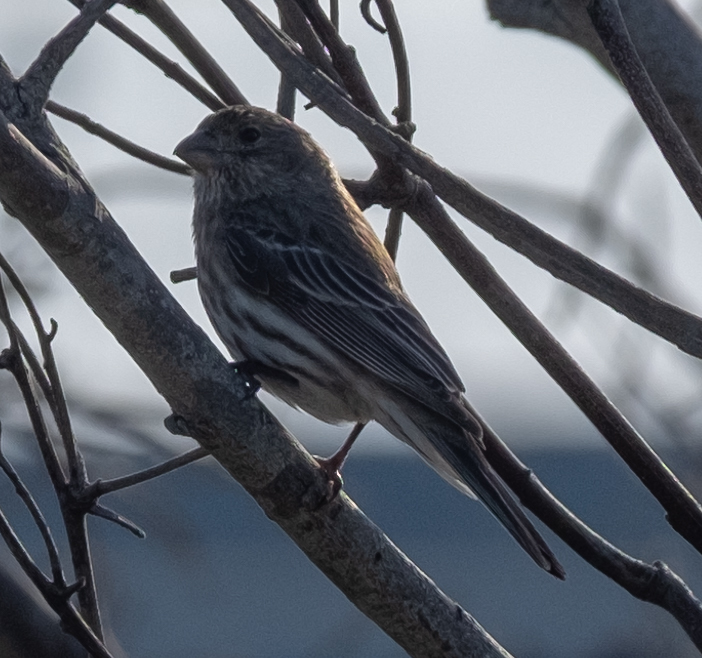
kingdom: Animalia
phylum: Chordata
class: Aves
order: Passeriformes
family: Fringillidae
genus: Haemorhous
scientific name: Haemorhous mexicanus
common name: House finch
